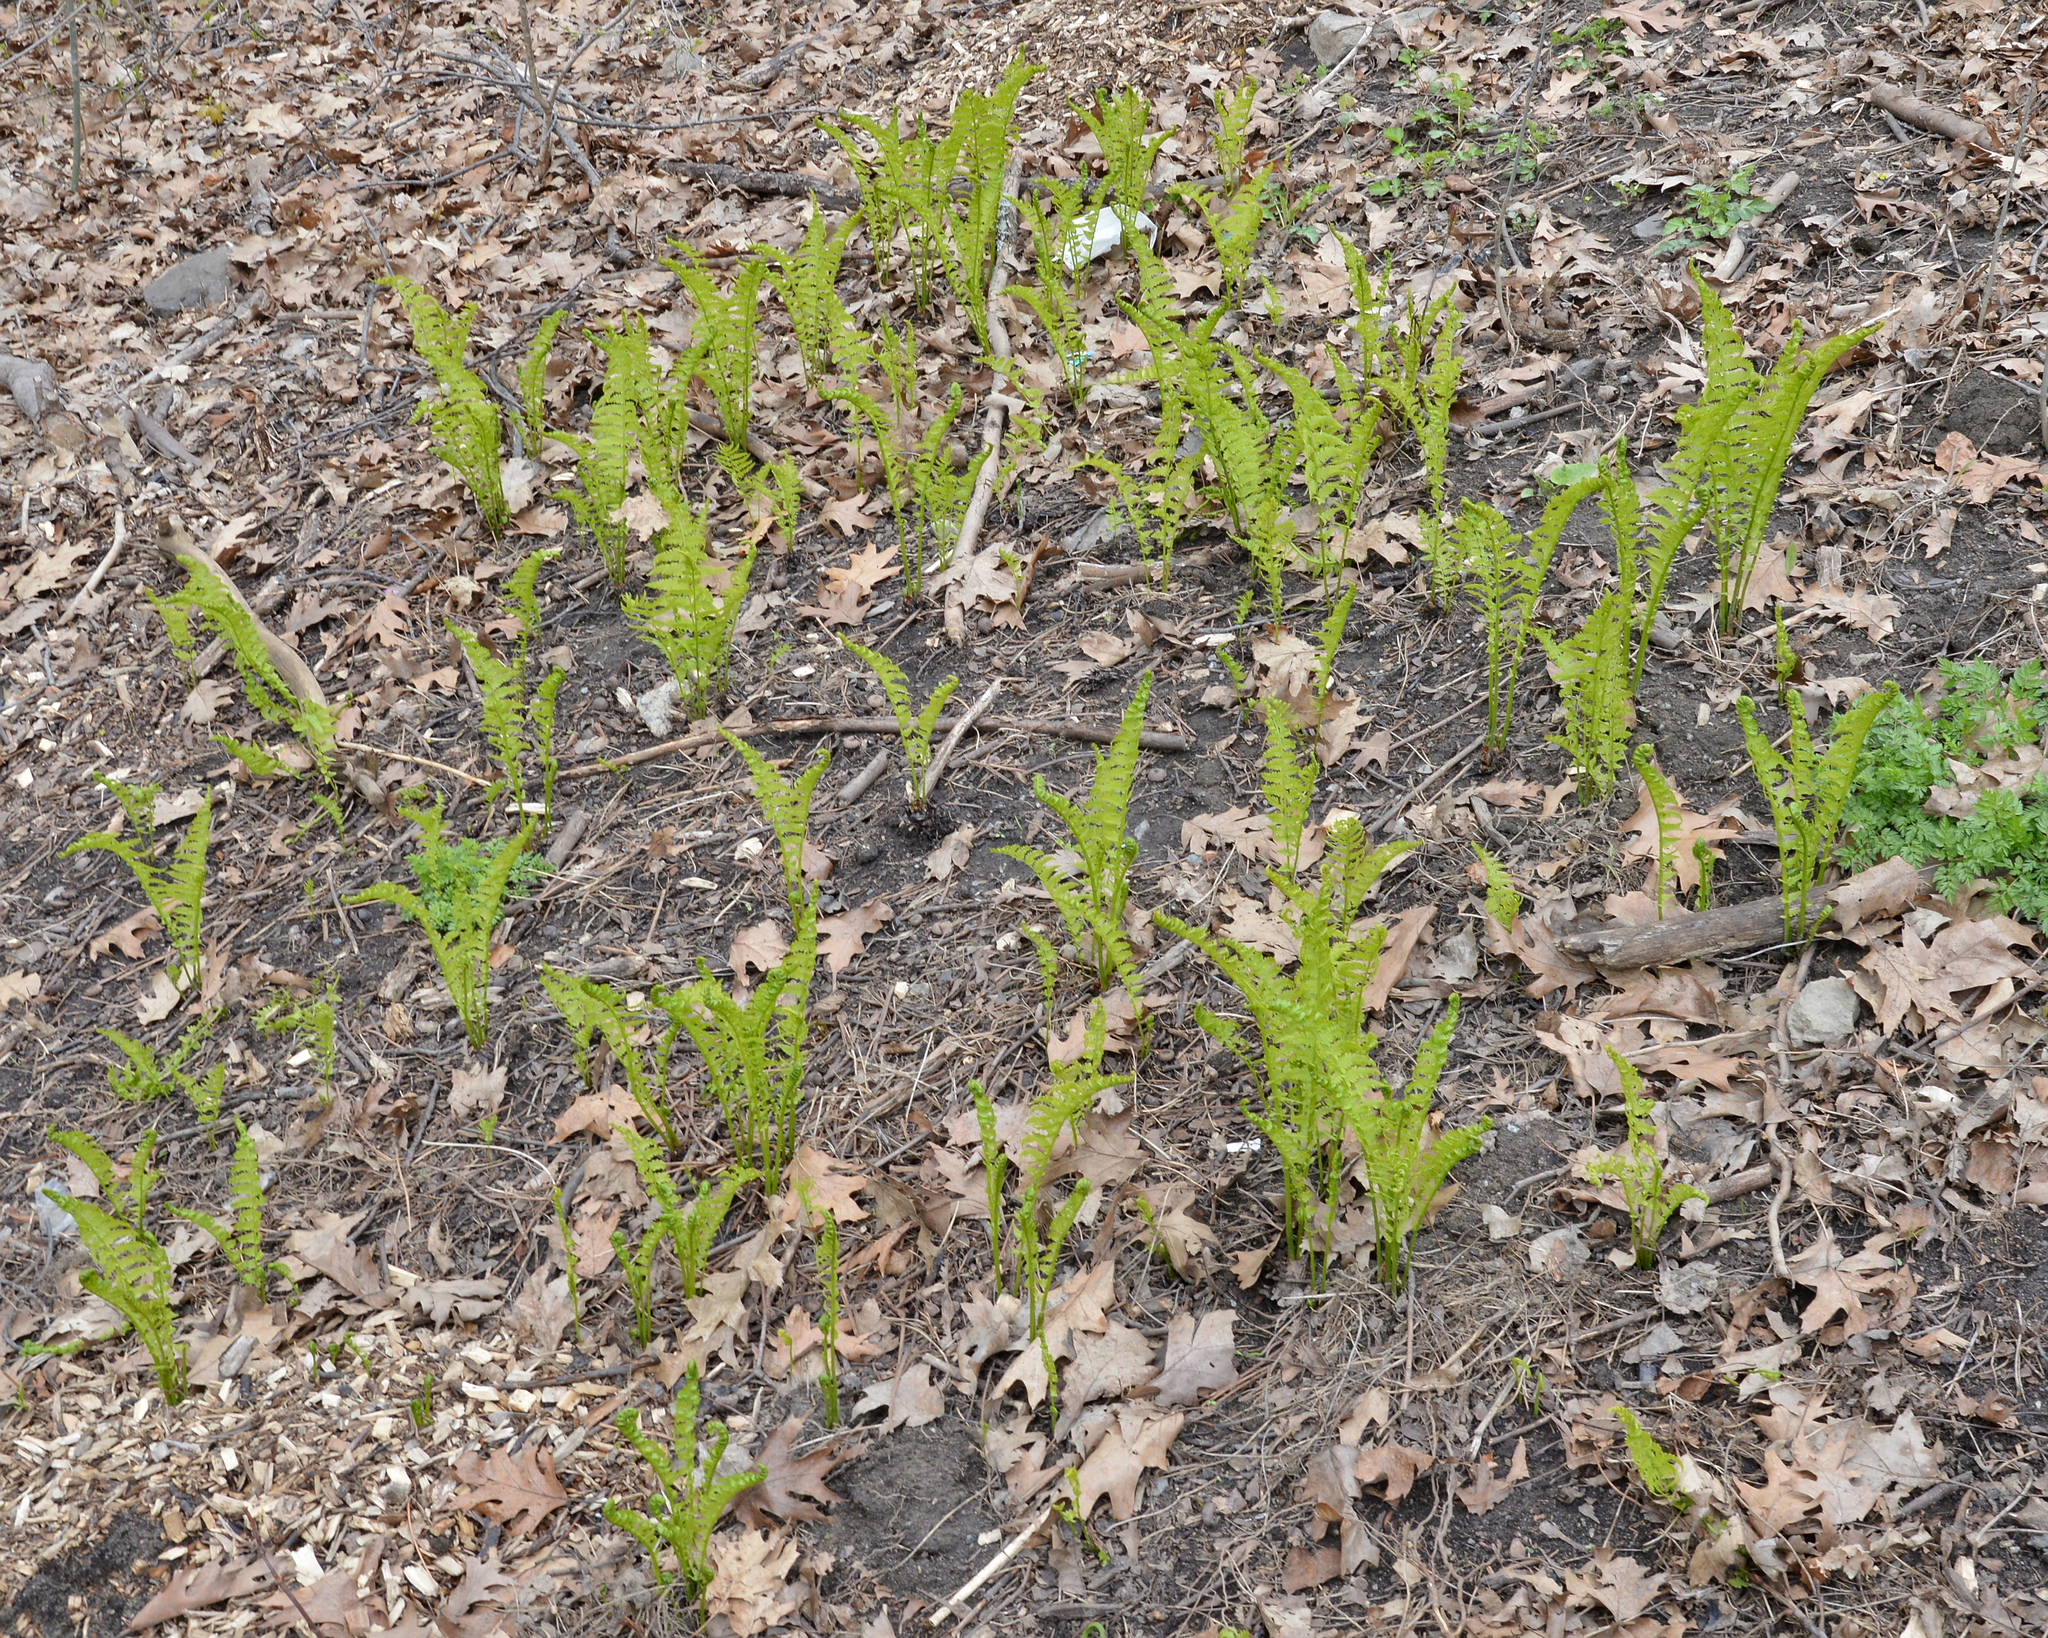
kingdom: Plantae
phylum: Tracheophyta
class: Polypodiopsida
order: Polypodiales
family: Onocleaceae
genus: Matteuccia
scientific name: Matteuccia struthiopteris
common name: Ostrich fern
